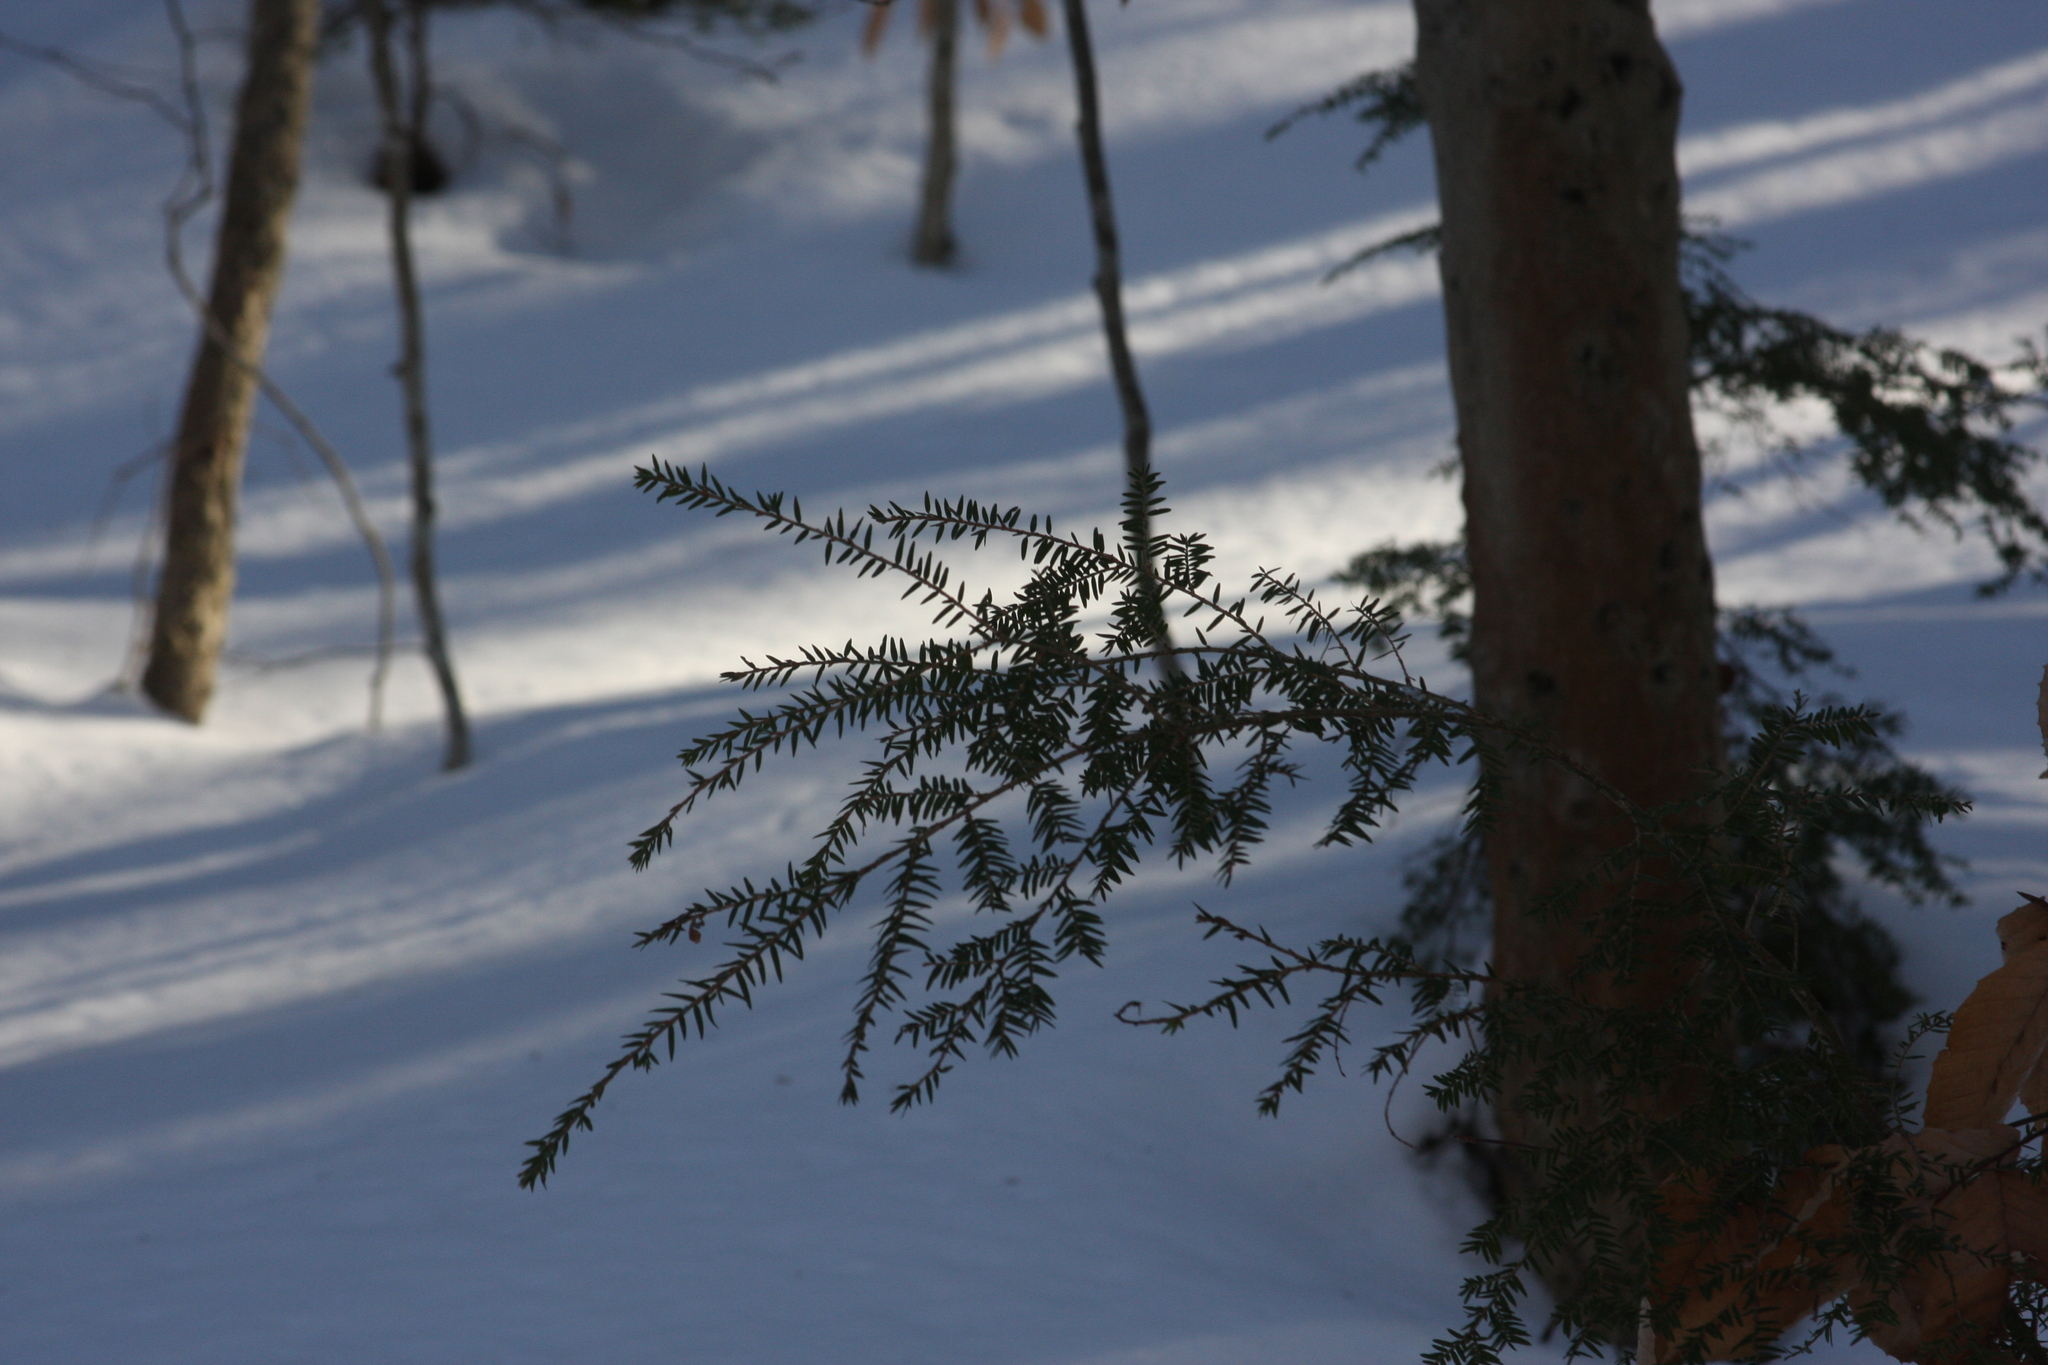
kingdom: Plantae
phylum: Tracheophyta
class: Pinopsida
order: Pinales
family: Pinaceae
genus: Tsuga
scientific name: Tsuga canadensis
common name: Eastern hemlock
